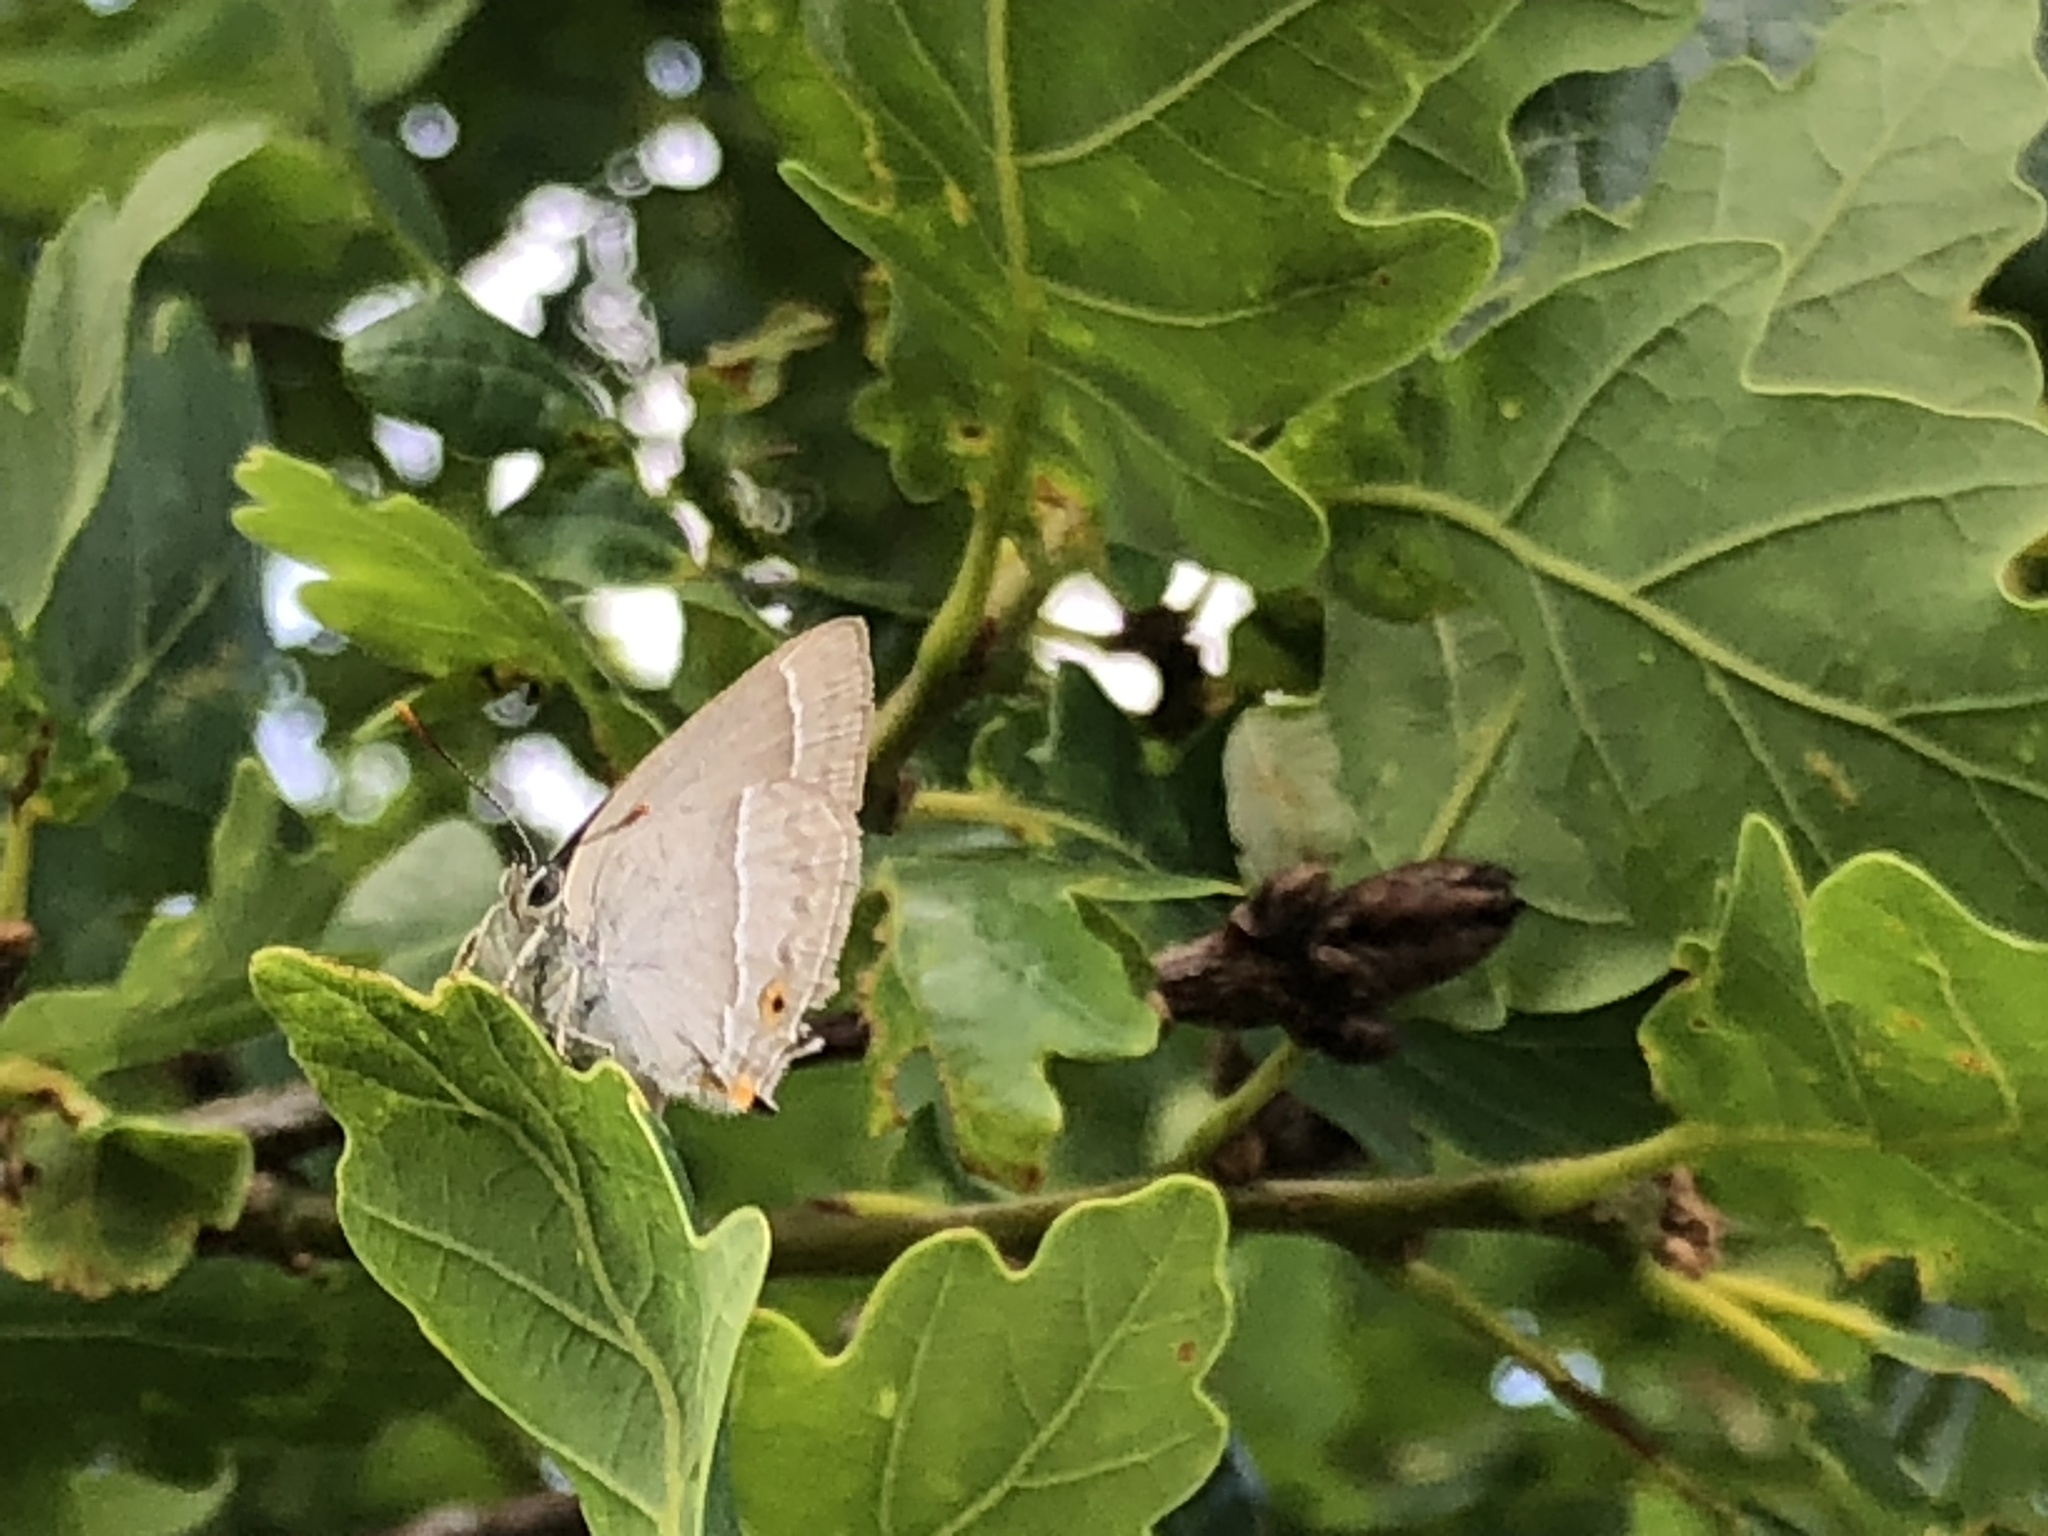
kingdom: Animalia
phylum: Arthropoda
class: Insecta
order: Lepidoptera
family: Lycaenidae
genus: Quercusia
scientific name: Quercusia quercus
